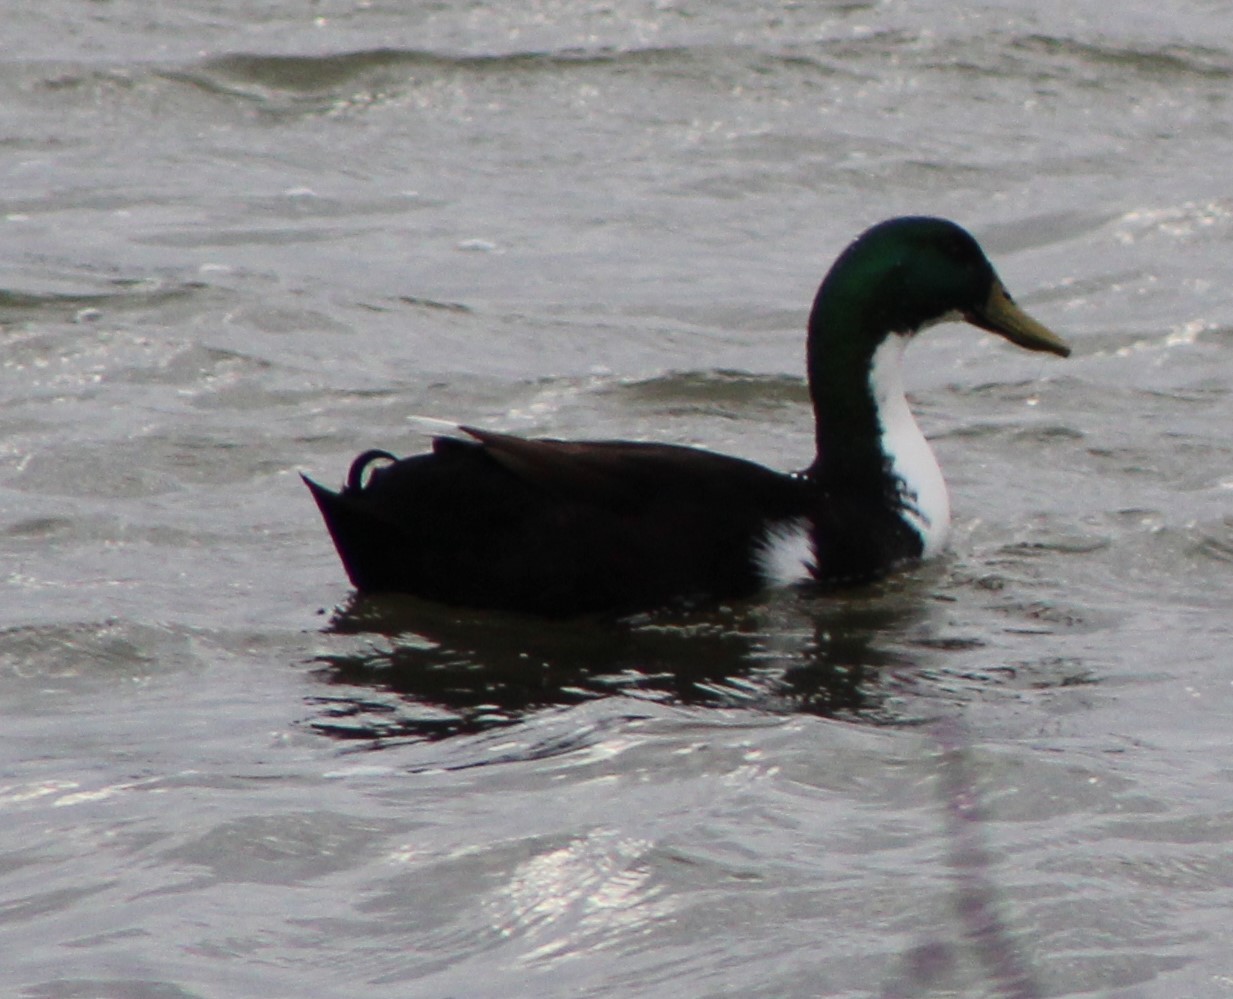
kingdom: Animalia
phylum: Chordata
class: Aves
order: Anseriformes
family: Anatidae
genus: Anas
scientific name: Anas platyrhynchos
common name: Mallard
